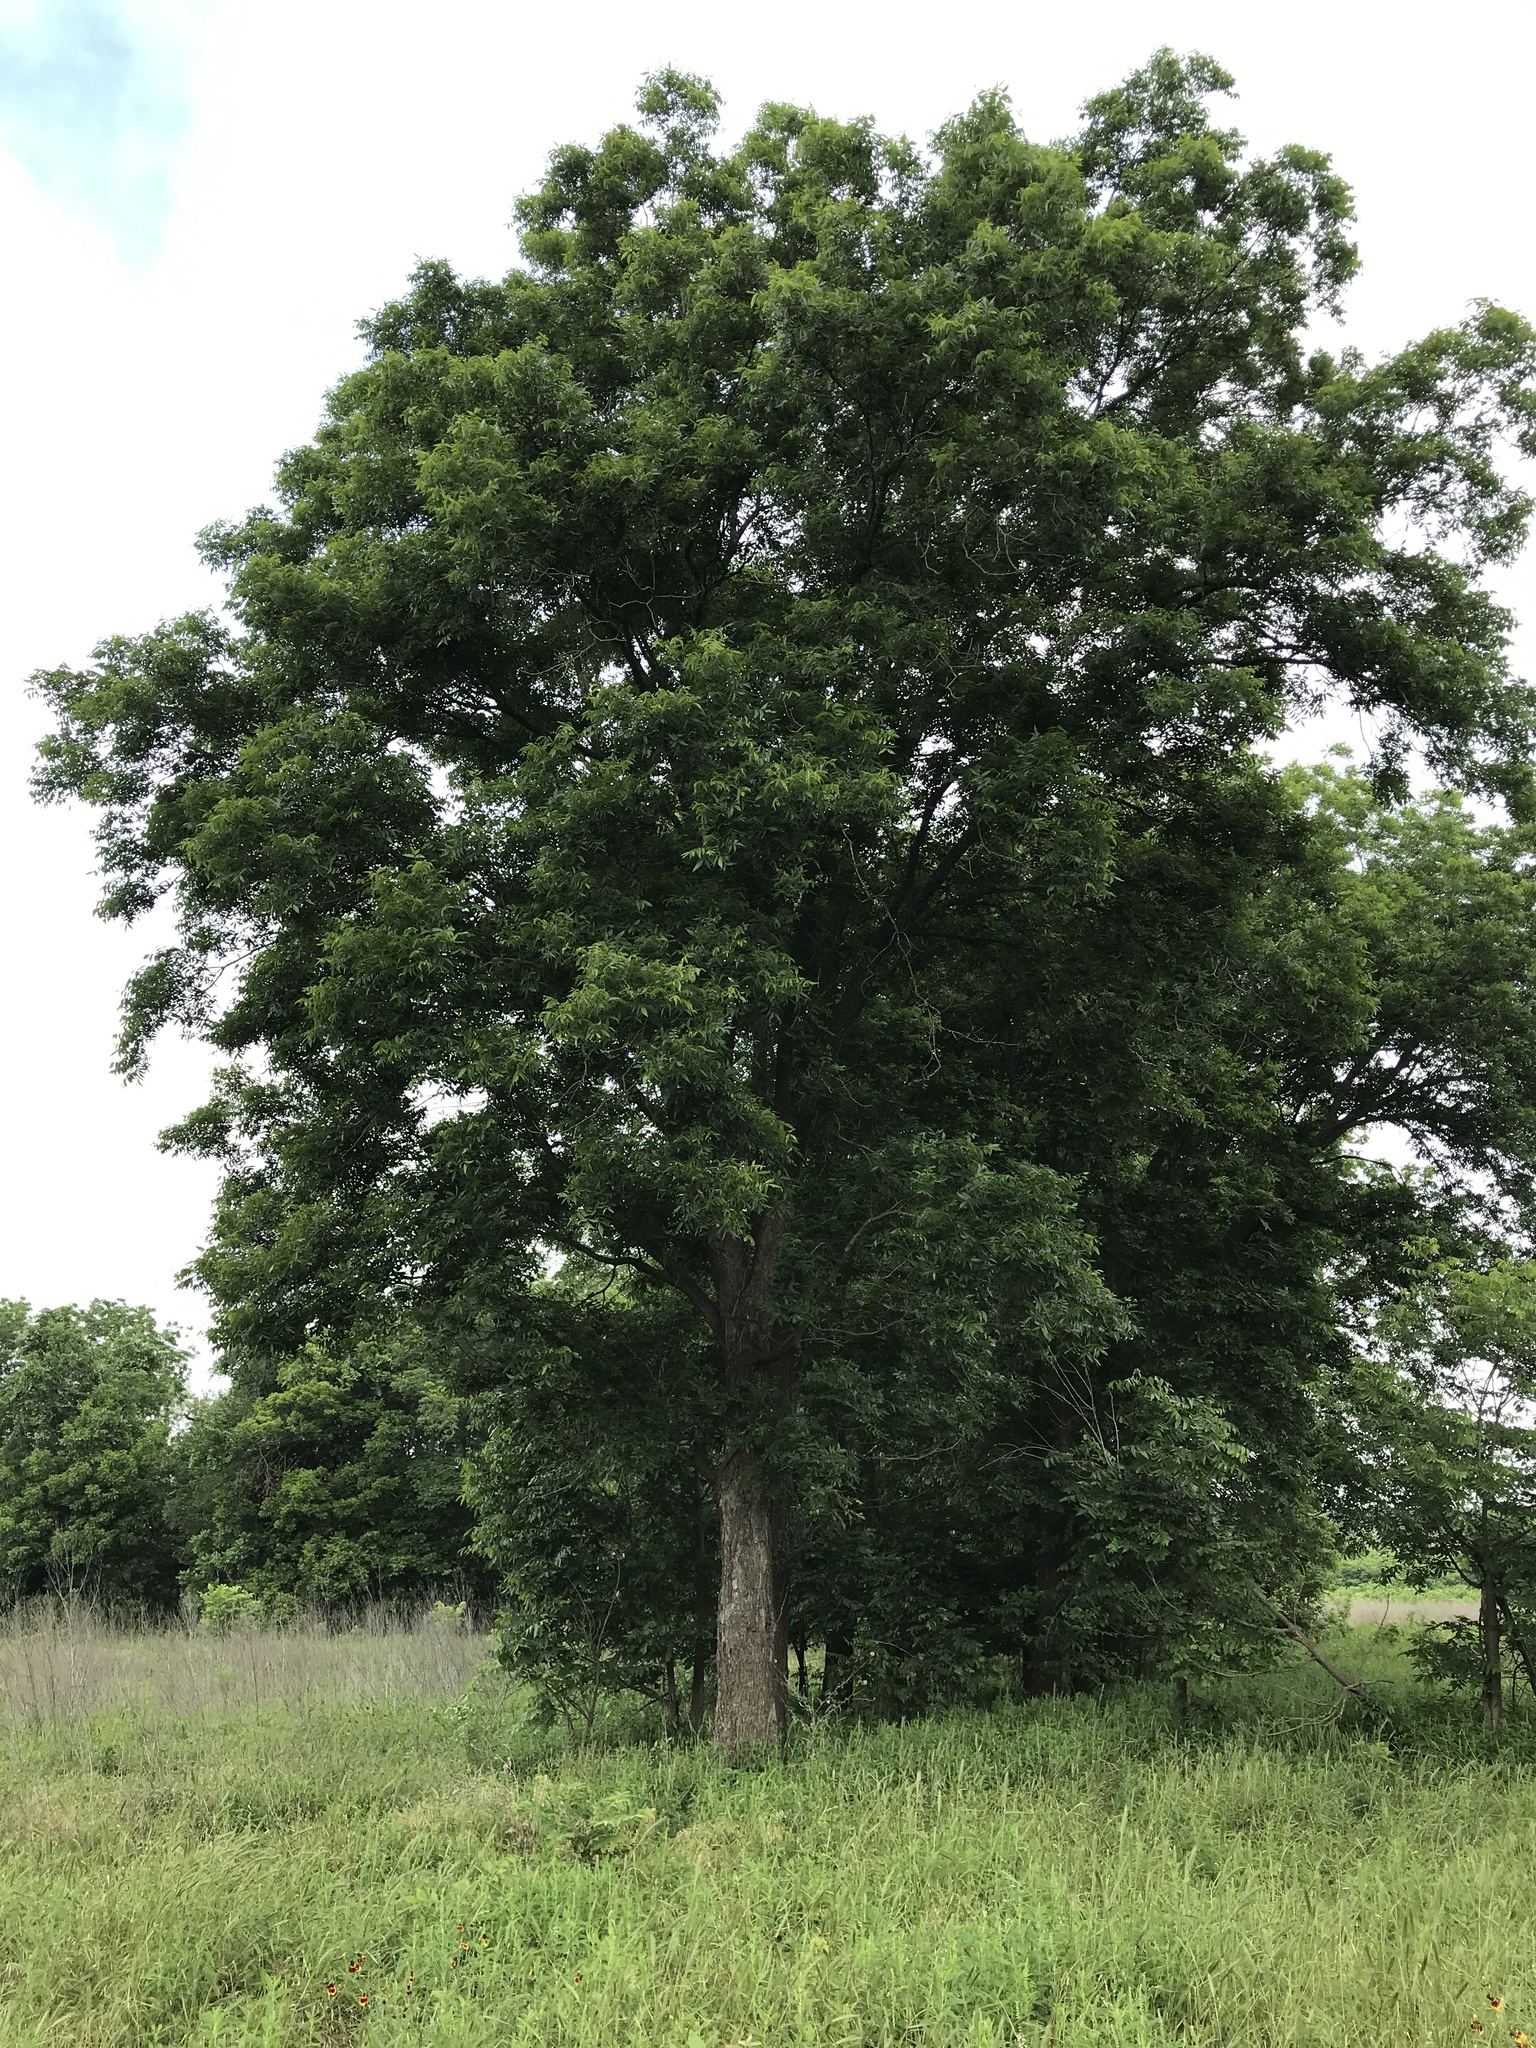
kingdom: Plantae
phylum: Tracheophyta
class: Magnoliopsida
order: Fagales
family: Juglandaceae
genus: Carya
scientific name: Carya illinoinensis
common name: Pecan
